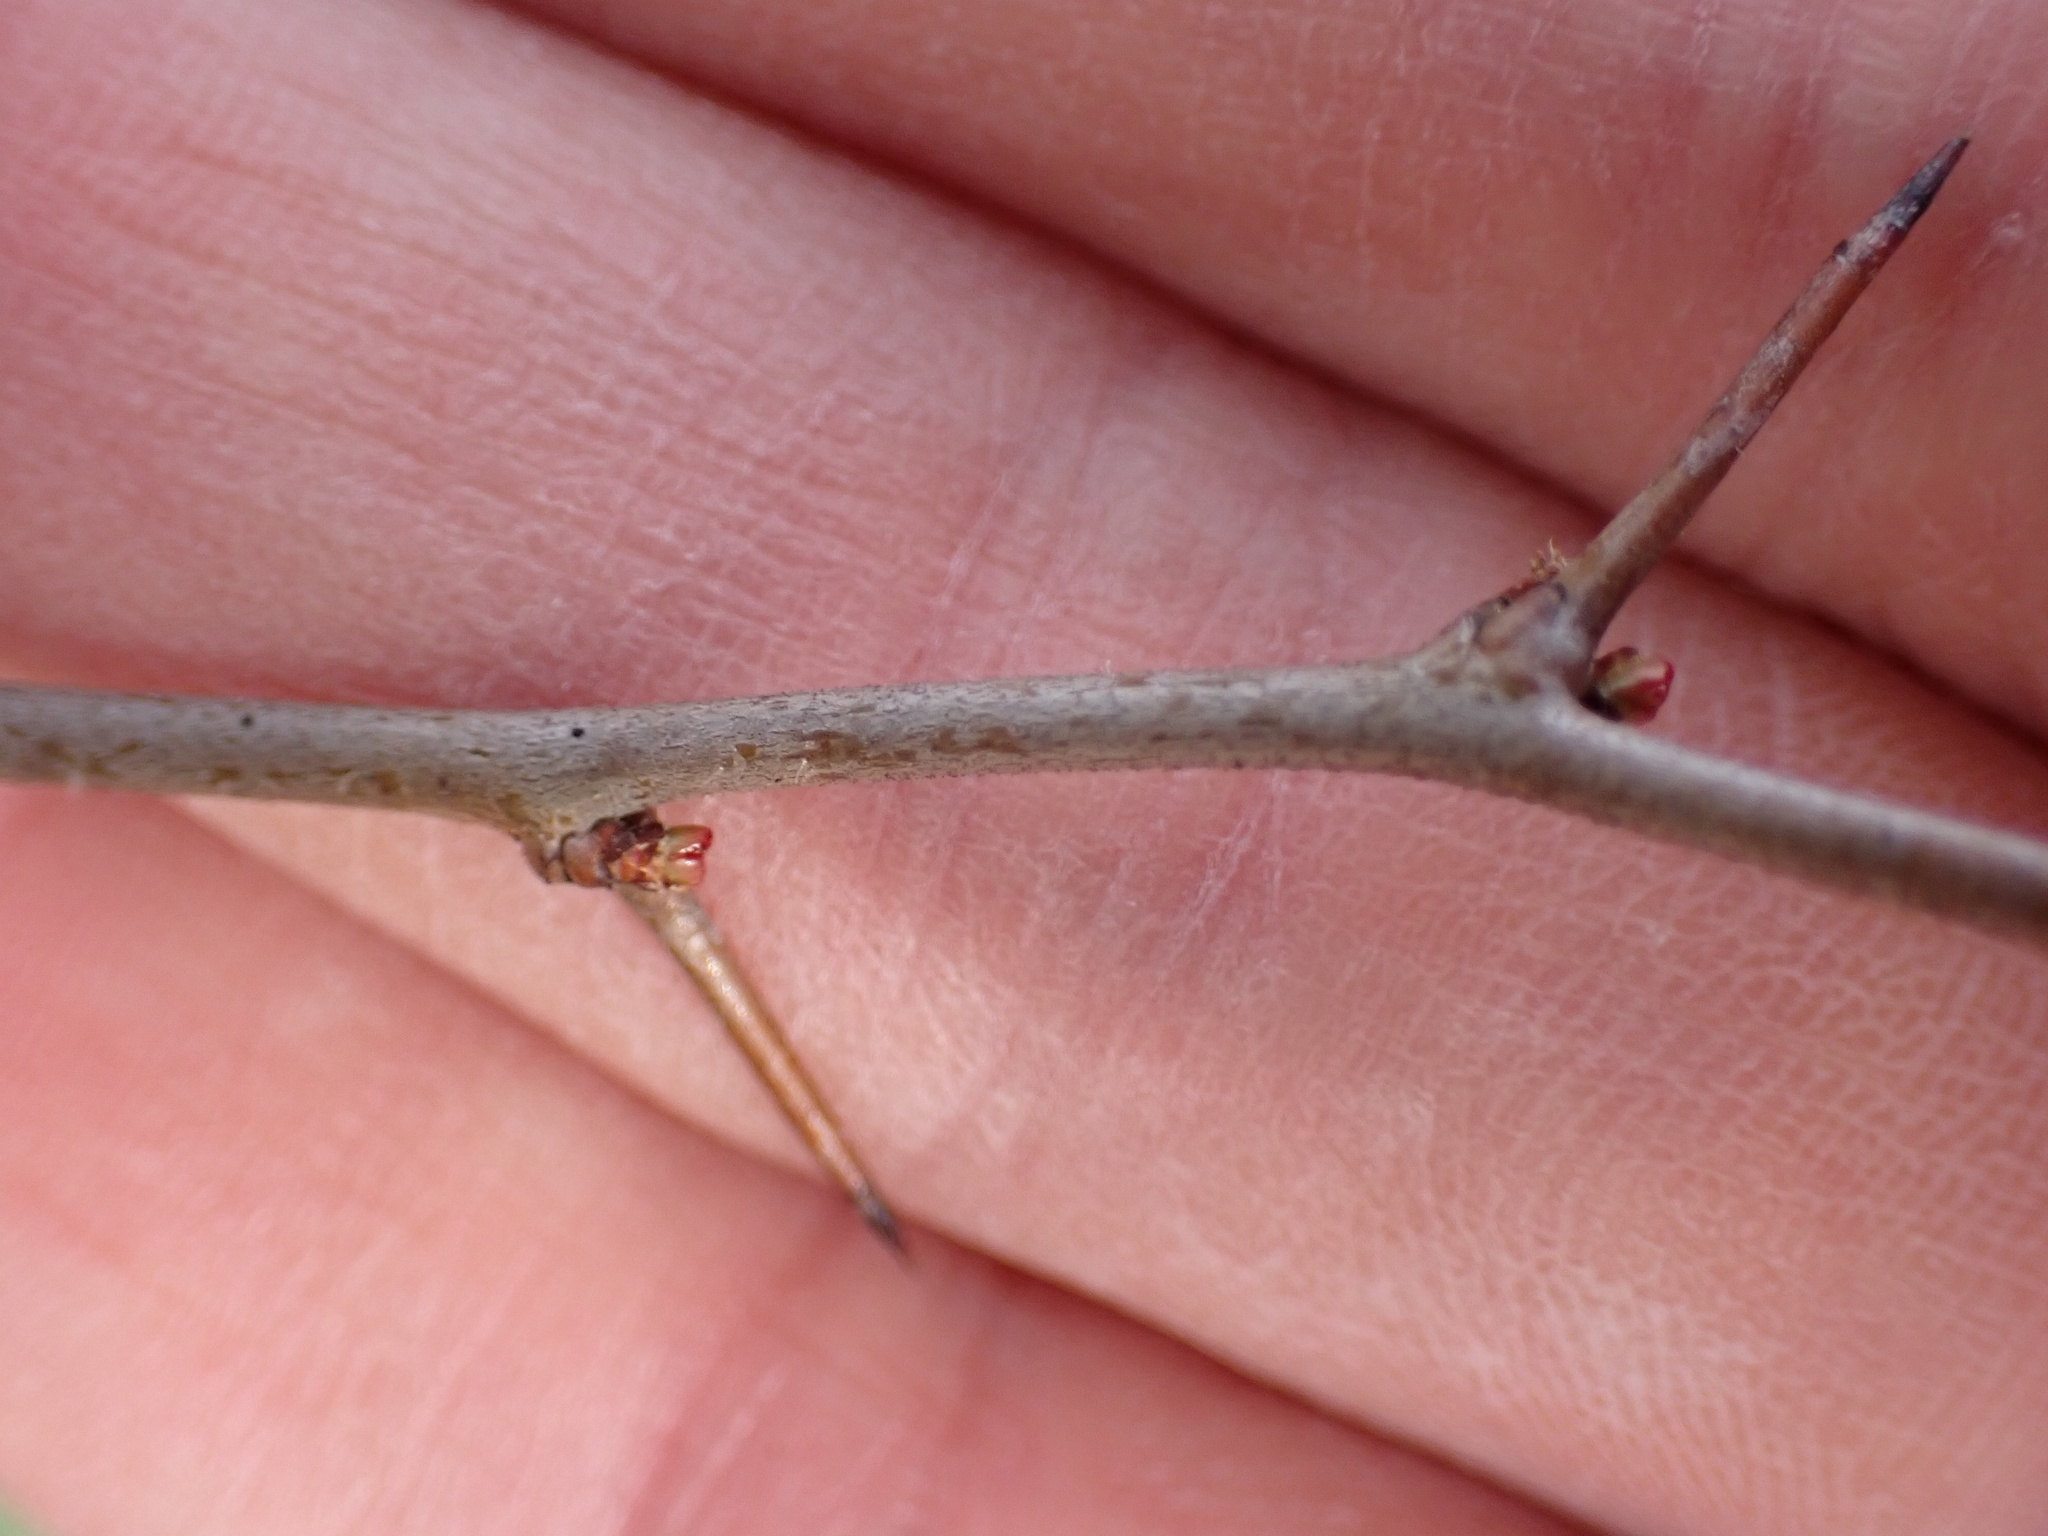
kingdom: Plantae
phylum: Tracheophyta
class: Magnoliopsida
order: Rosales
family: Rosaceae
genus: Chaenomeles
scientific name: Chaenomeles speciosa
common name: Japanese quince
